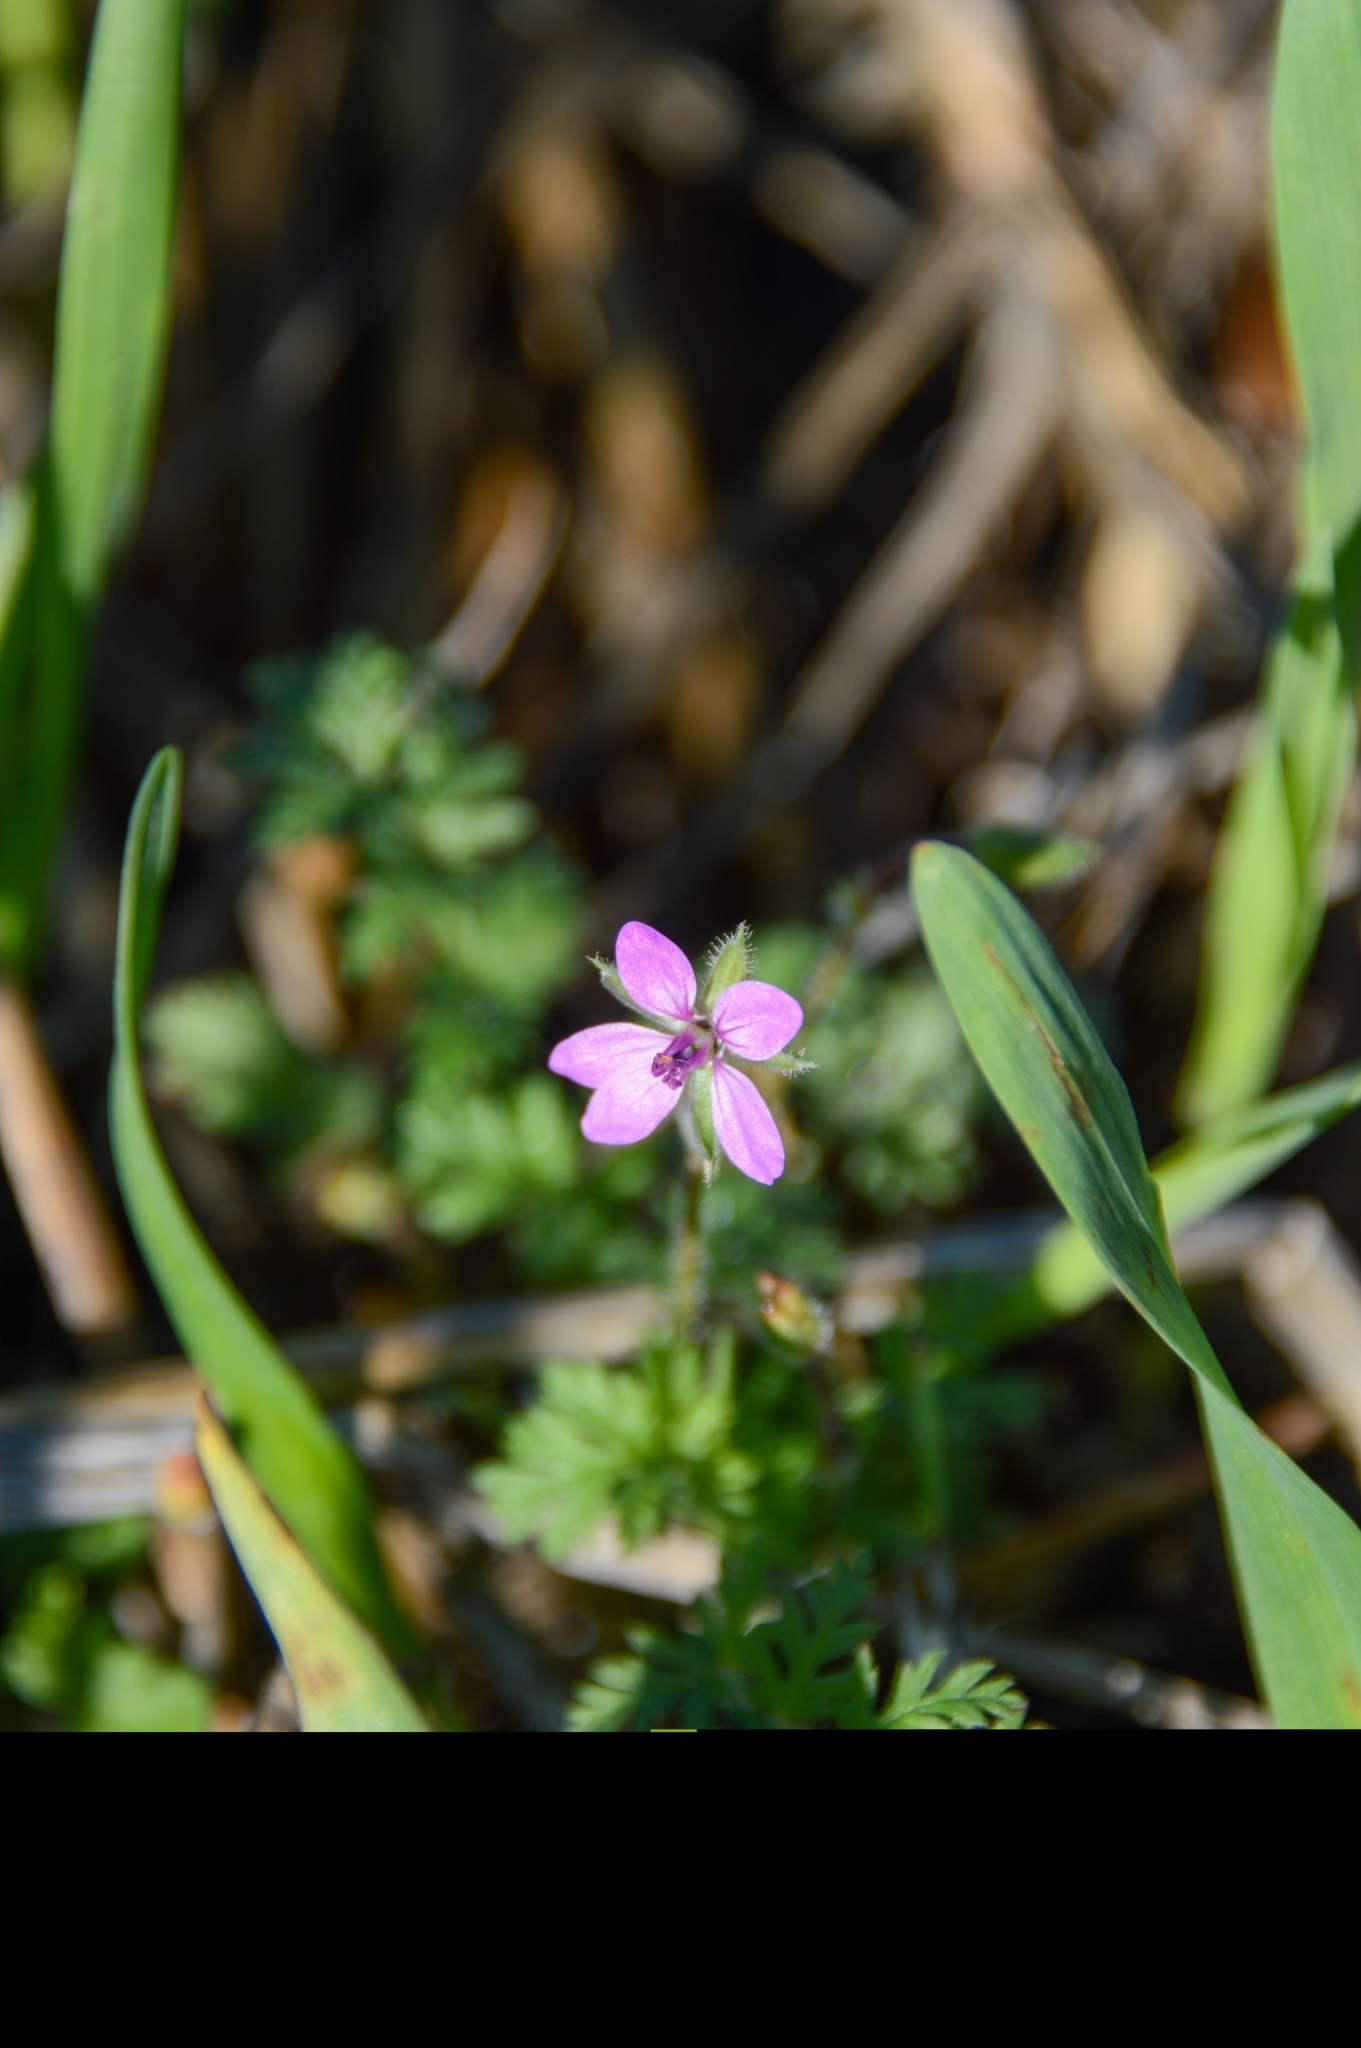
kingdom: Plantae
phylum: Tracheophyta
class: Magnoliopsida
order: Geraniales
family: Geraniaceae
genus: Erodium
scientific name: Erodium cicutarium
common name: Common stork's-bill
